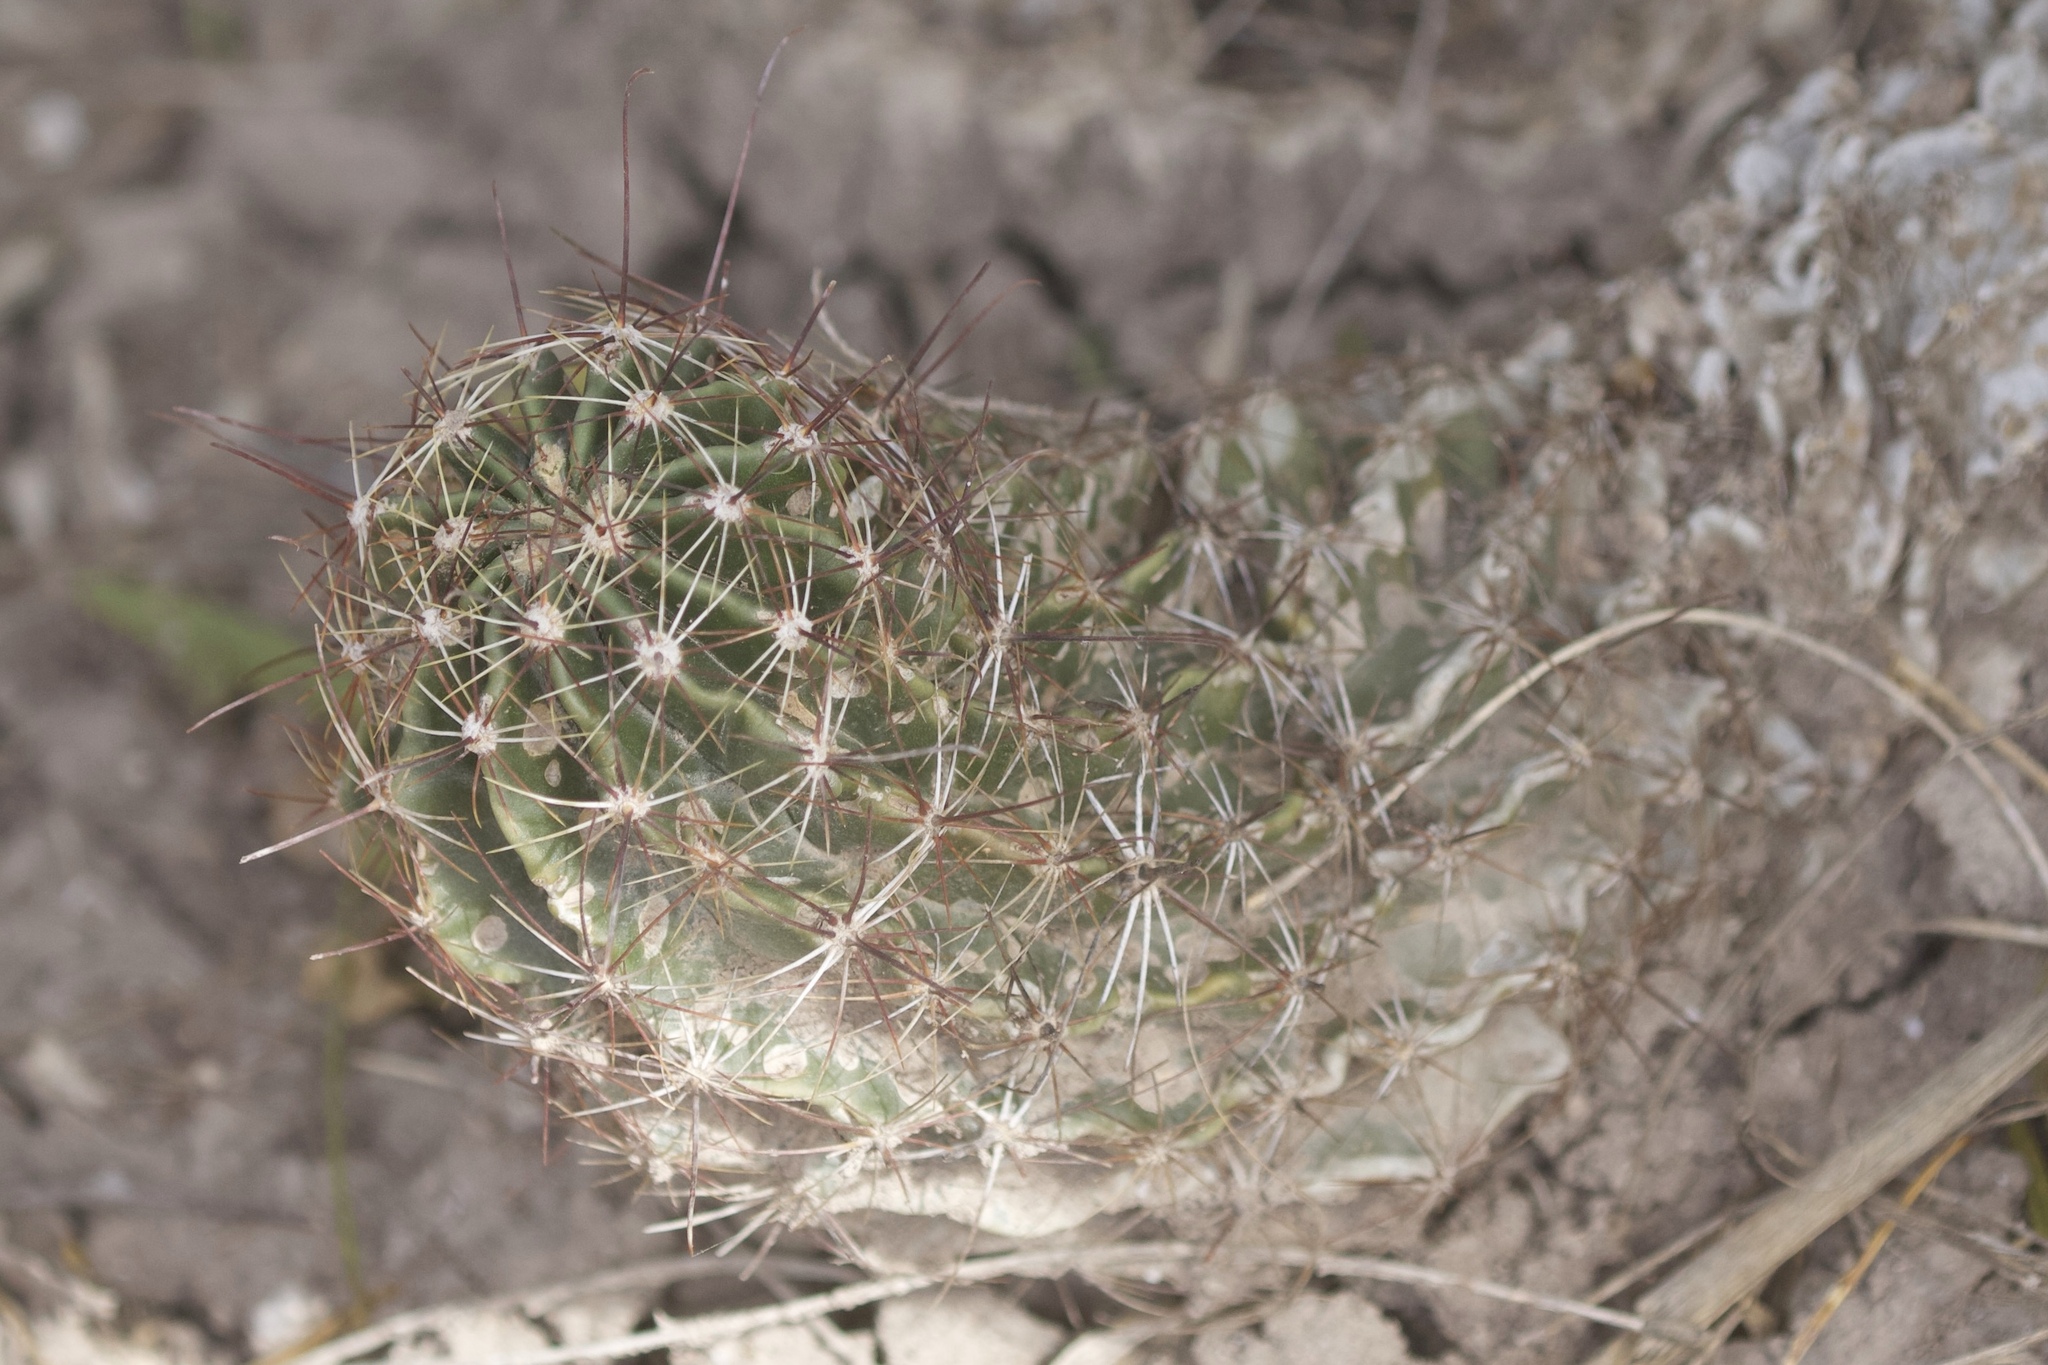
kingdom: Plantae
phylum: Tracheophyta
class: Magnoliopsida
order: Caryophyllales
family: Cactaceae
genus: Thelocactus
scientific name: Thelocactus setispinus
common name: Miniature barrel cactus
